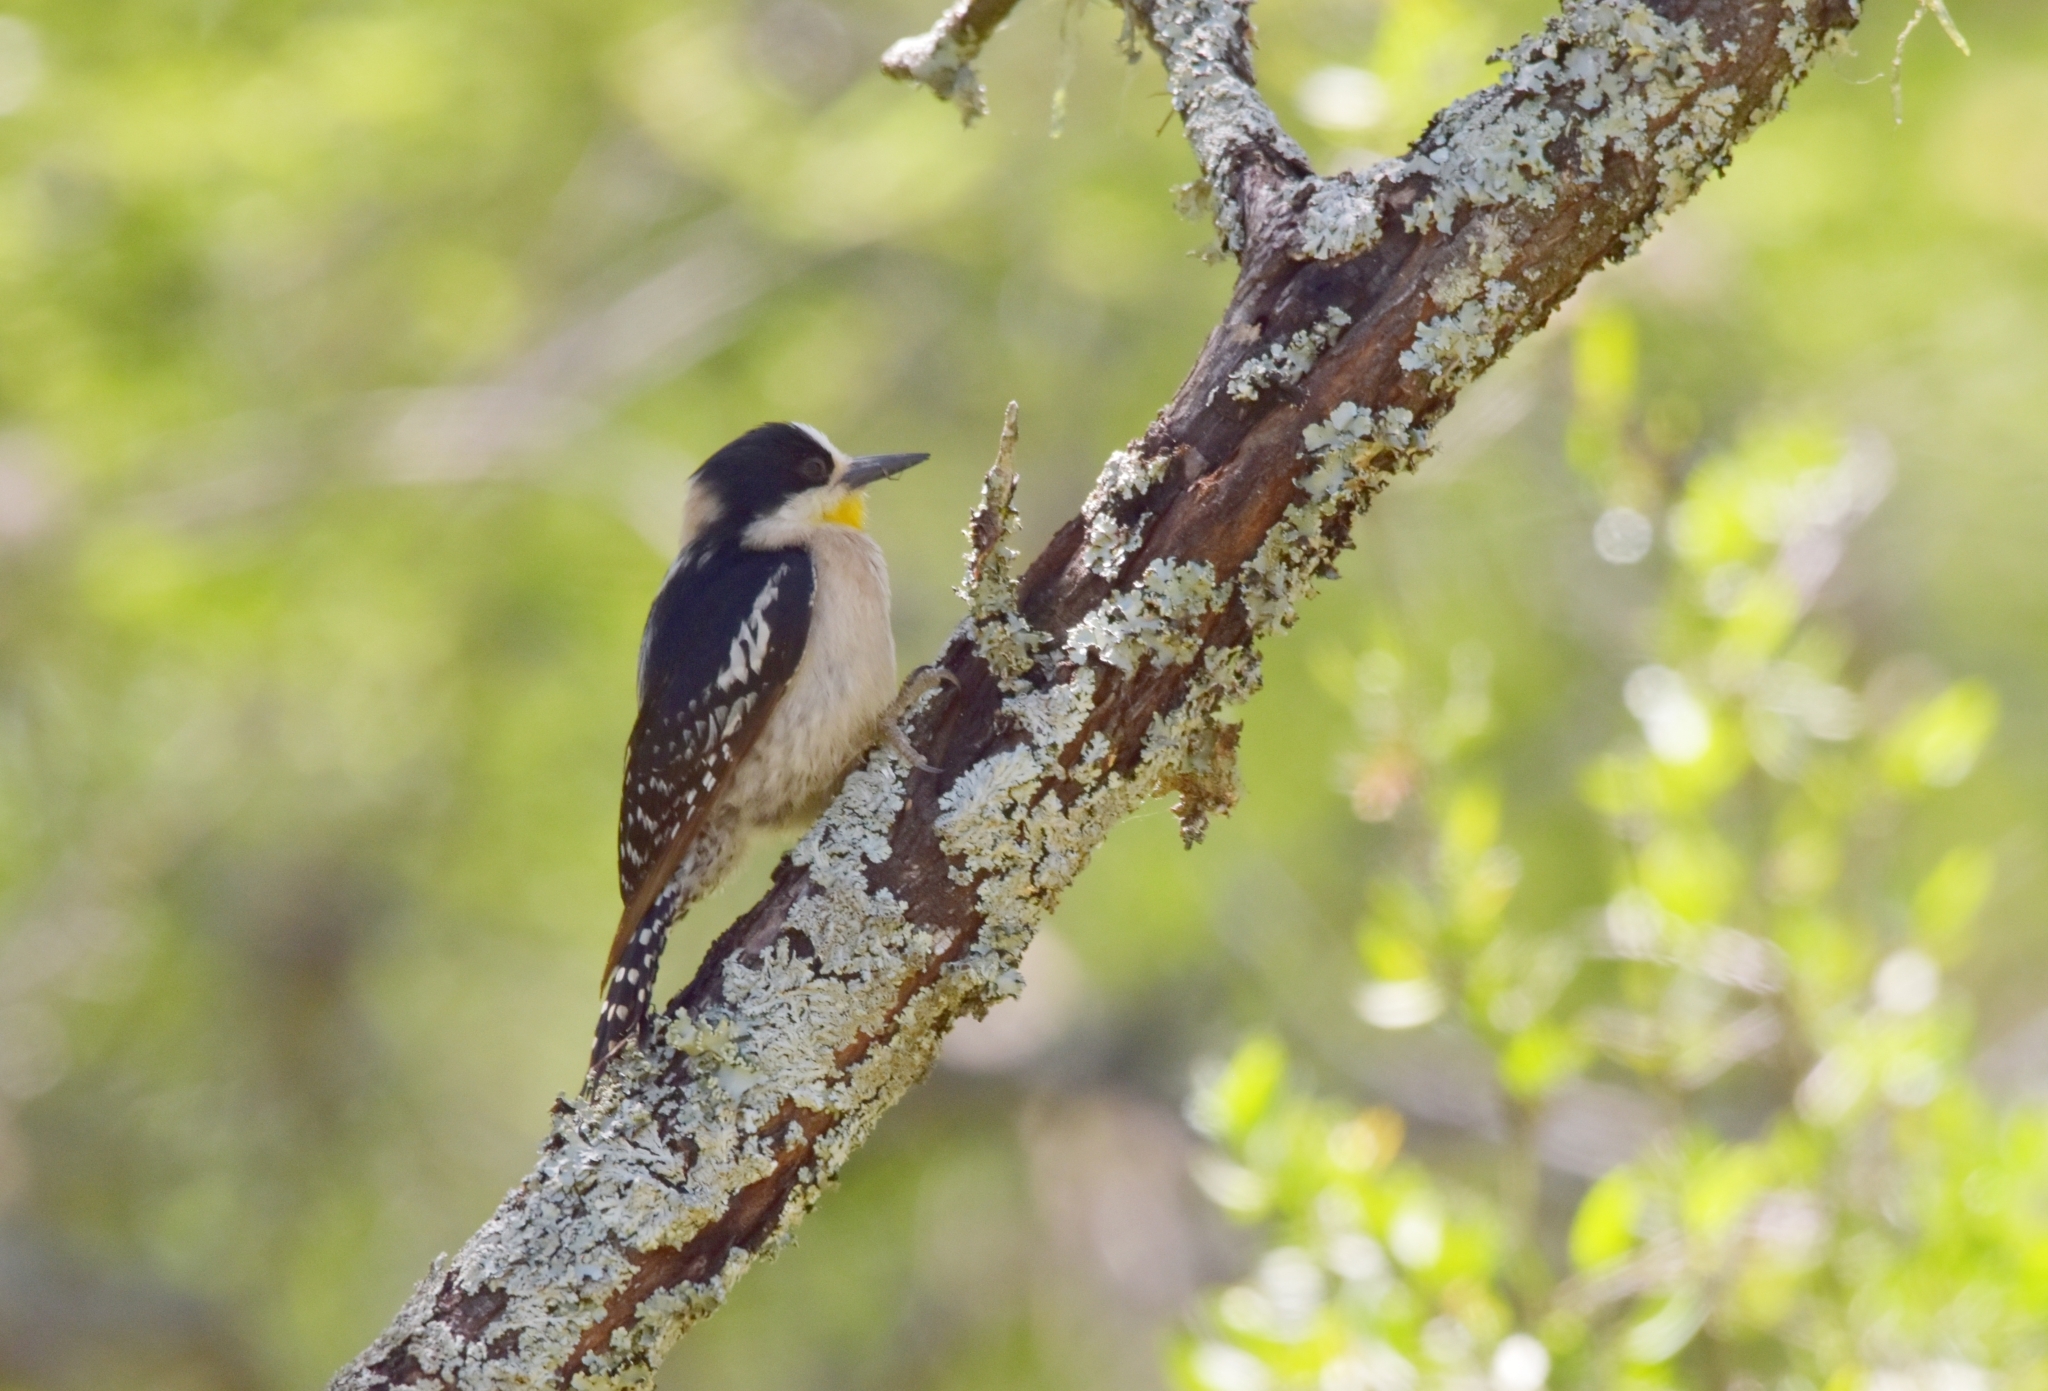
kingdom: Animalia
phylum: Chordata
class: Aves
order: Piciformes
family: Picidae
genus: Melanerpes
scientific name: Melanerpes cactorum
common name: White-fronted woodpecker
